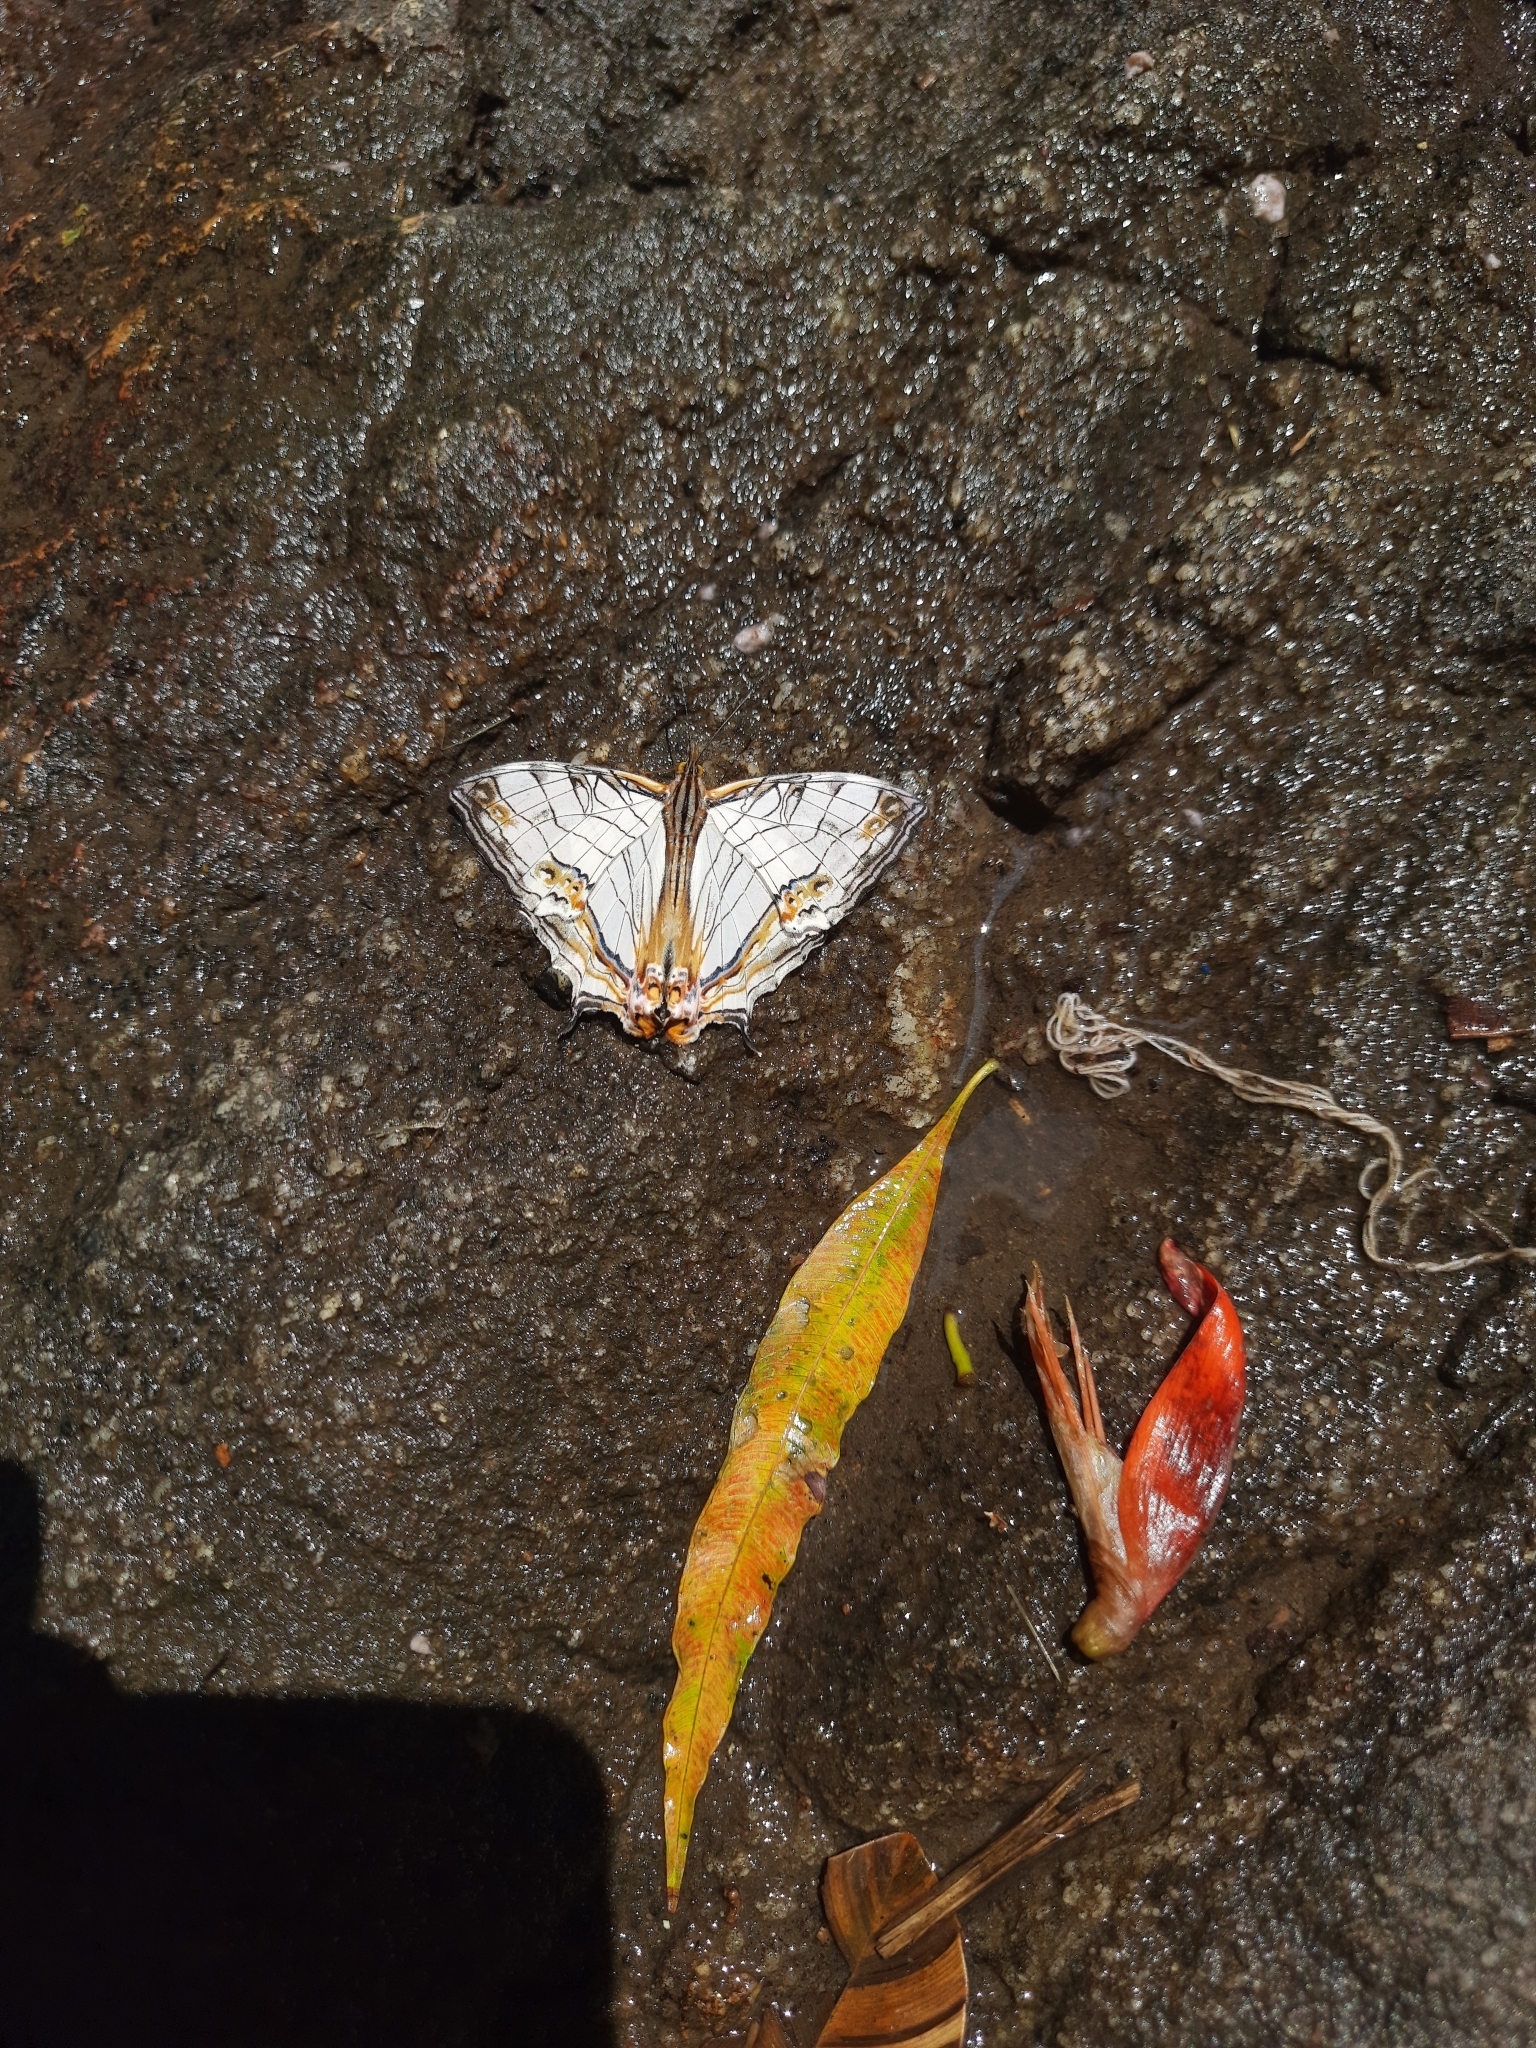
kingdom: Animalia
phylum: Arthropoda
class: Insecta
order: Lepidoptera
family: Nymphalidae
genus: Cyrestis
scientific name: Cyrestis thyodamas
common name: Common mapwing
